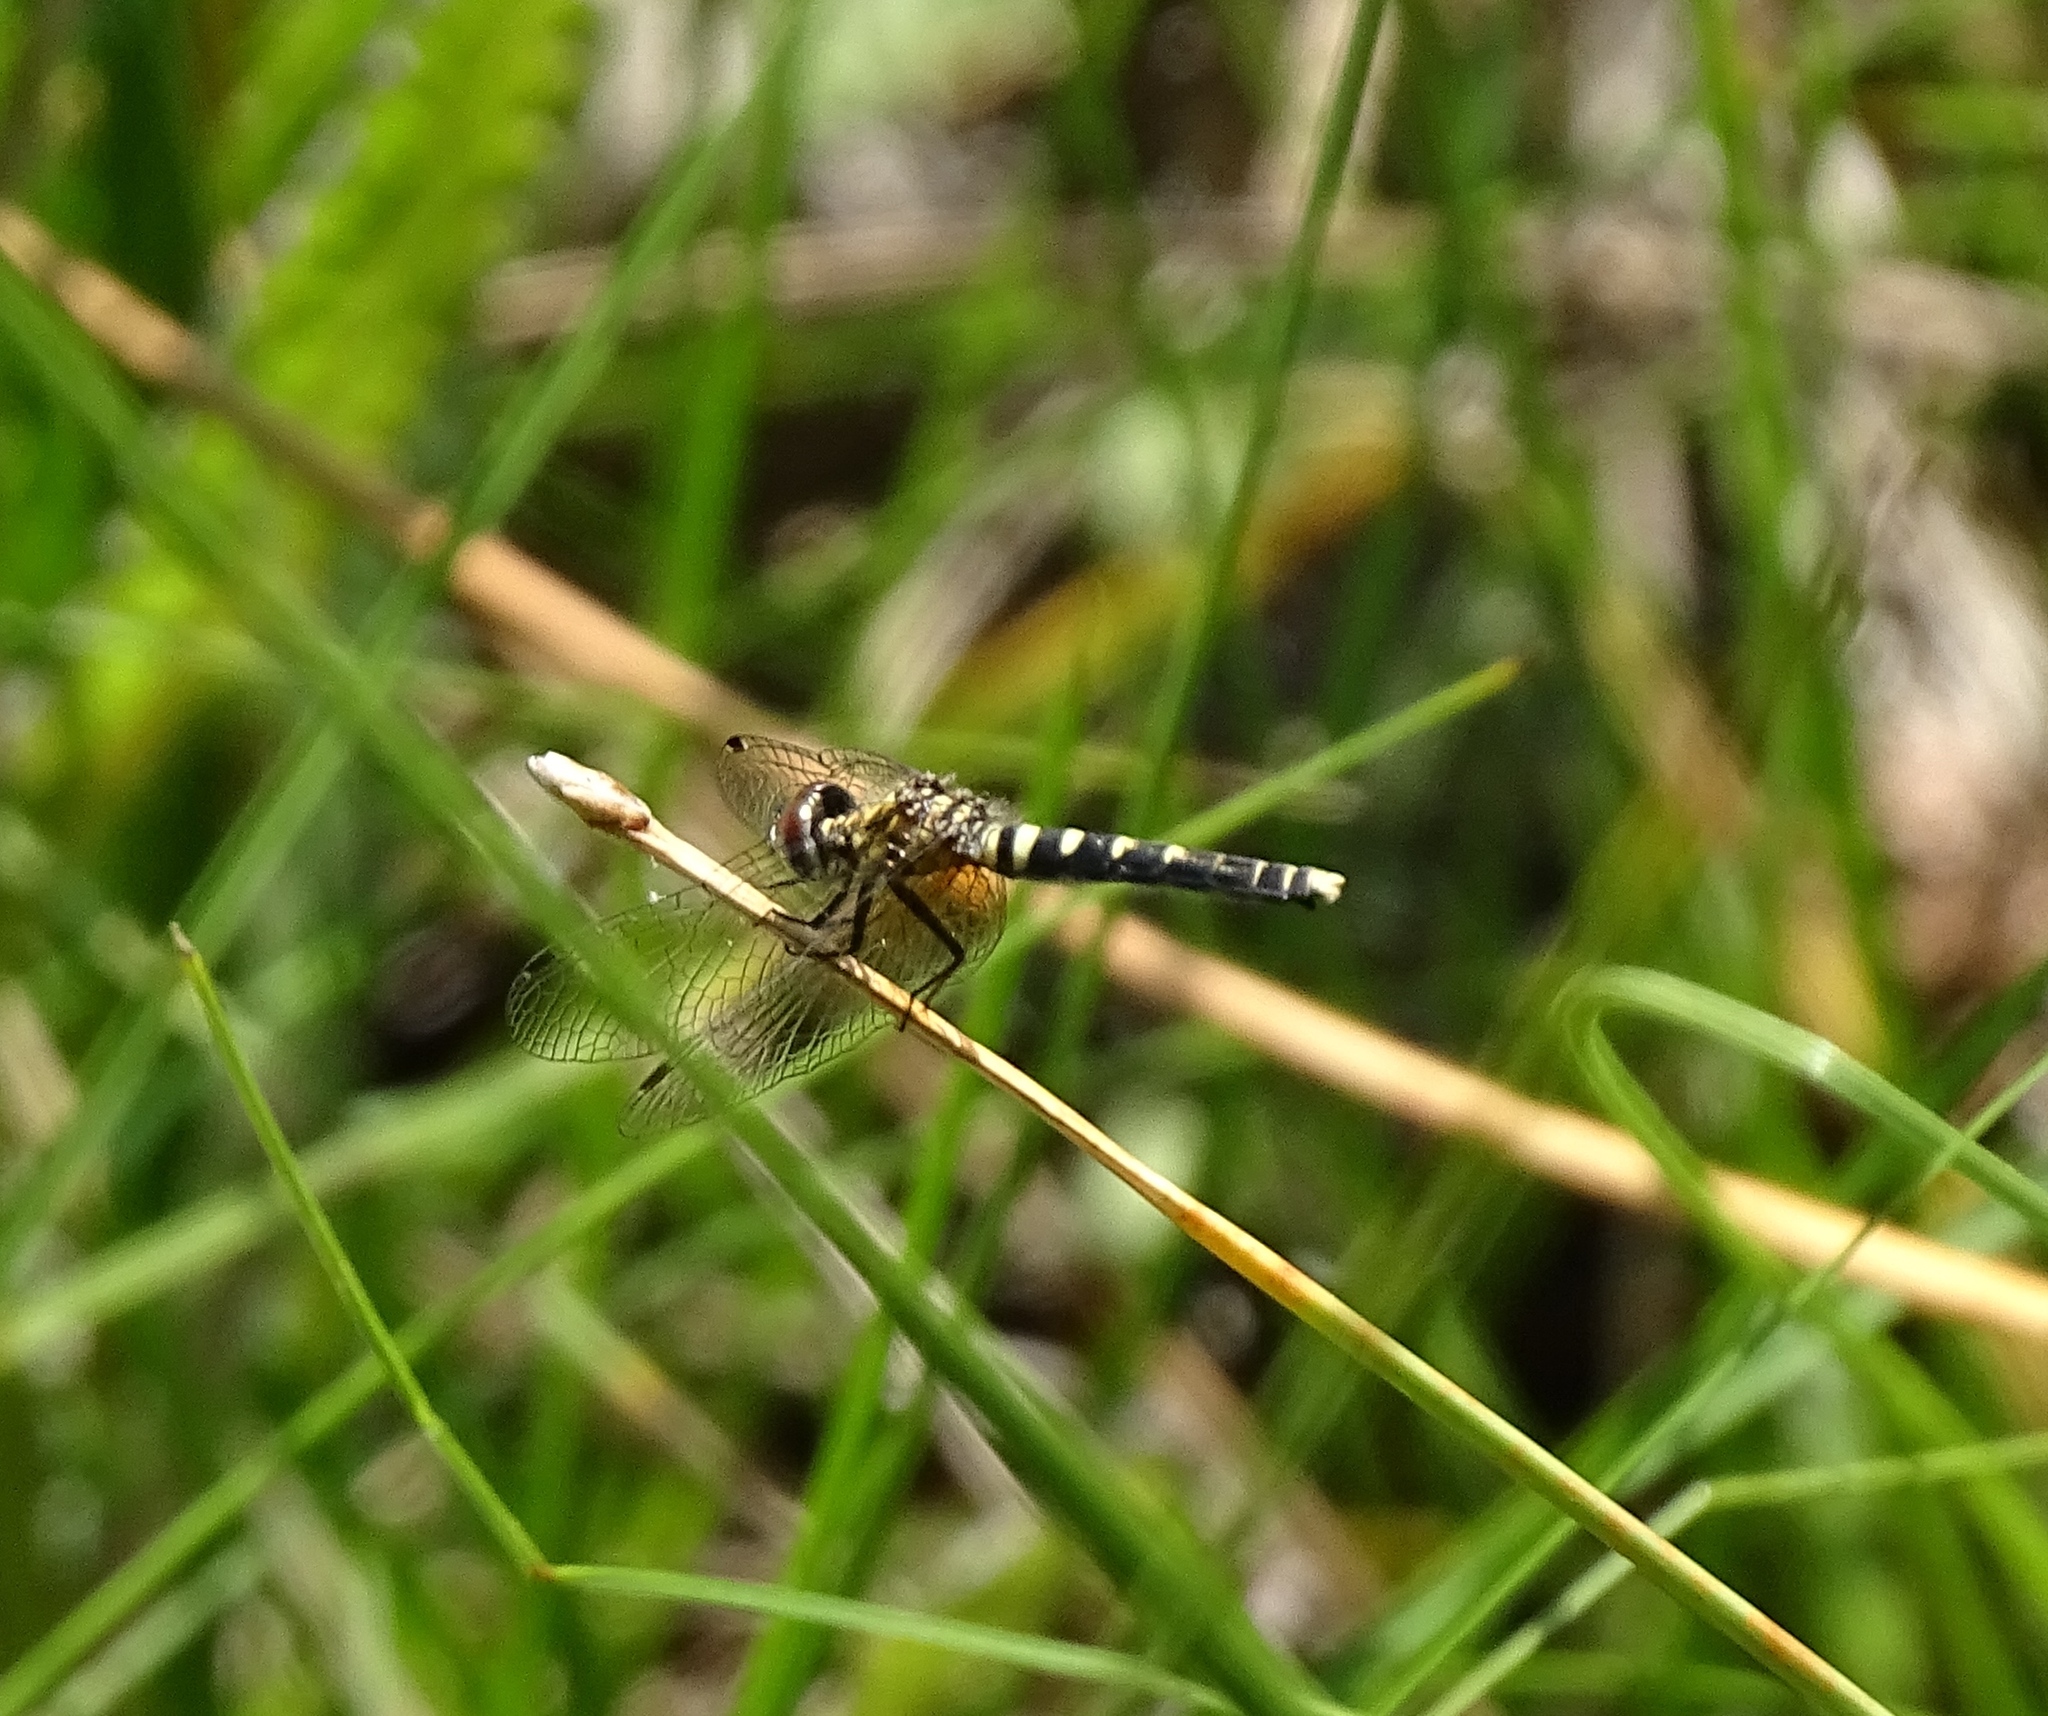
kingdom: Animalia
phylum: Arthropoda
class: Insecta
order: Odonata
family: Libellulidae
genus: Nannothemis
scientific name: Nannothemis bella
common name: Elfin skimmer
